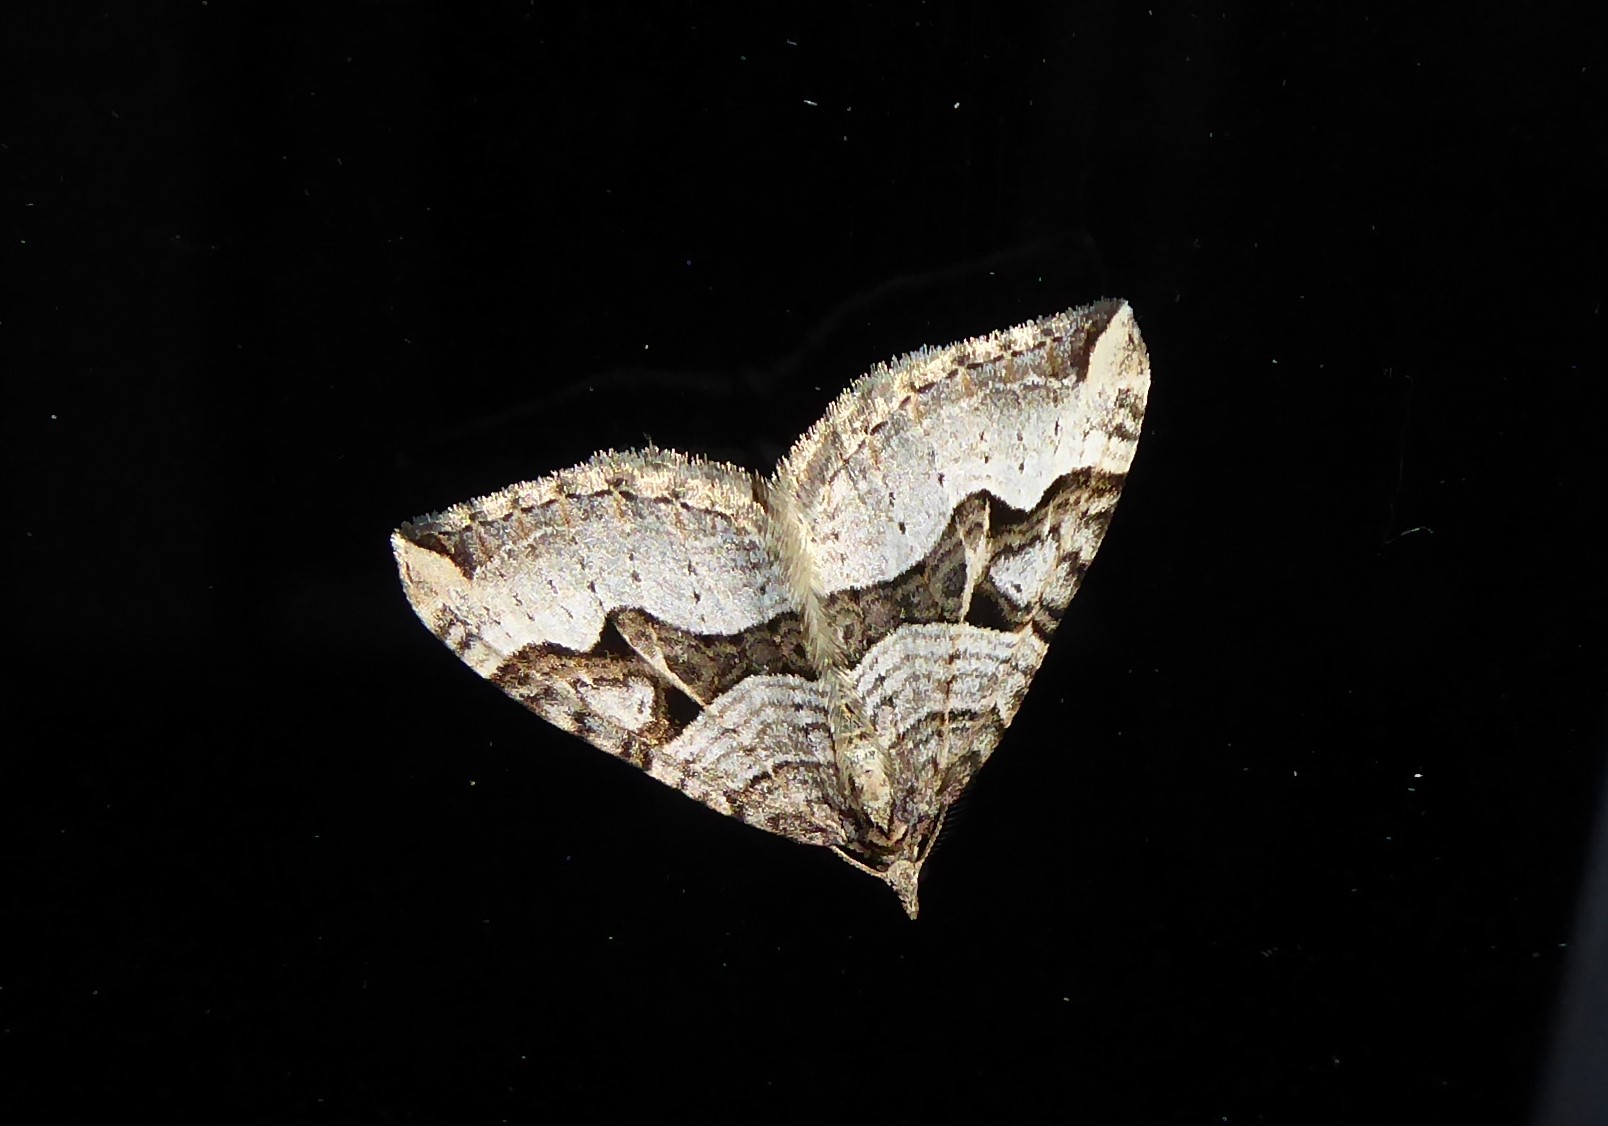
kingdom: Animalia
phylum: Arthropoda
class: Insecta
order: Lepidoptera
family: Geometridae
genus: Xanthorhoe
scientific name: Xanthorhoe semifissata
